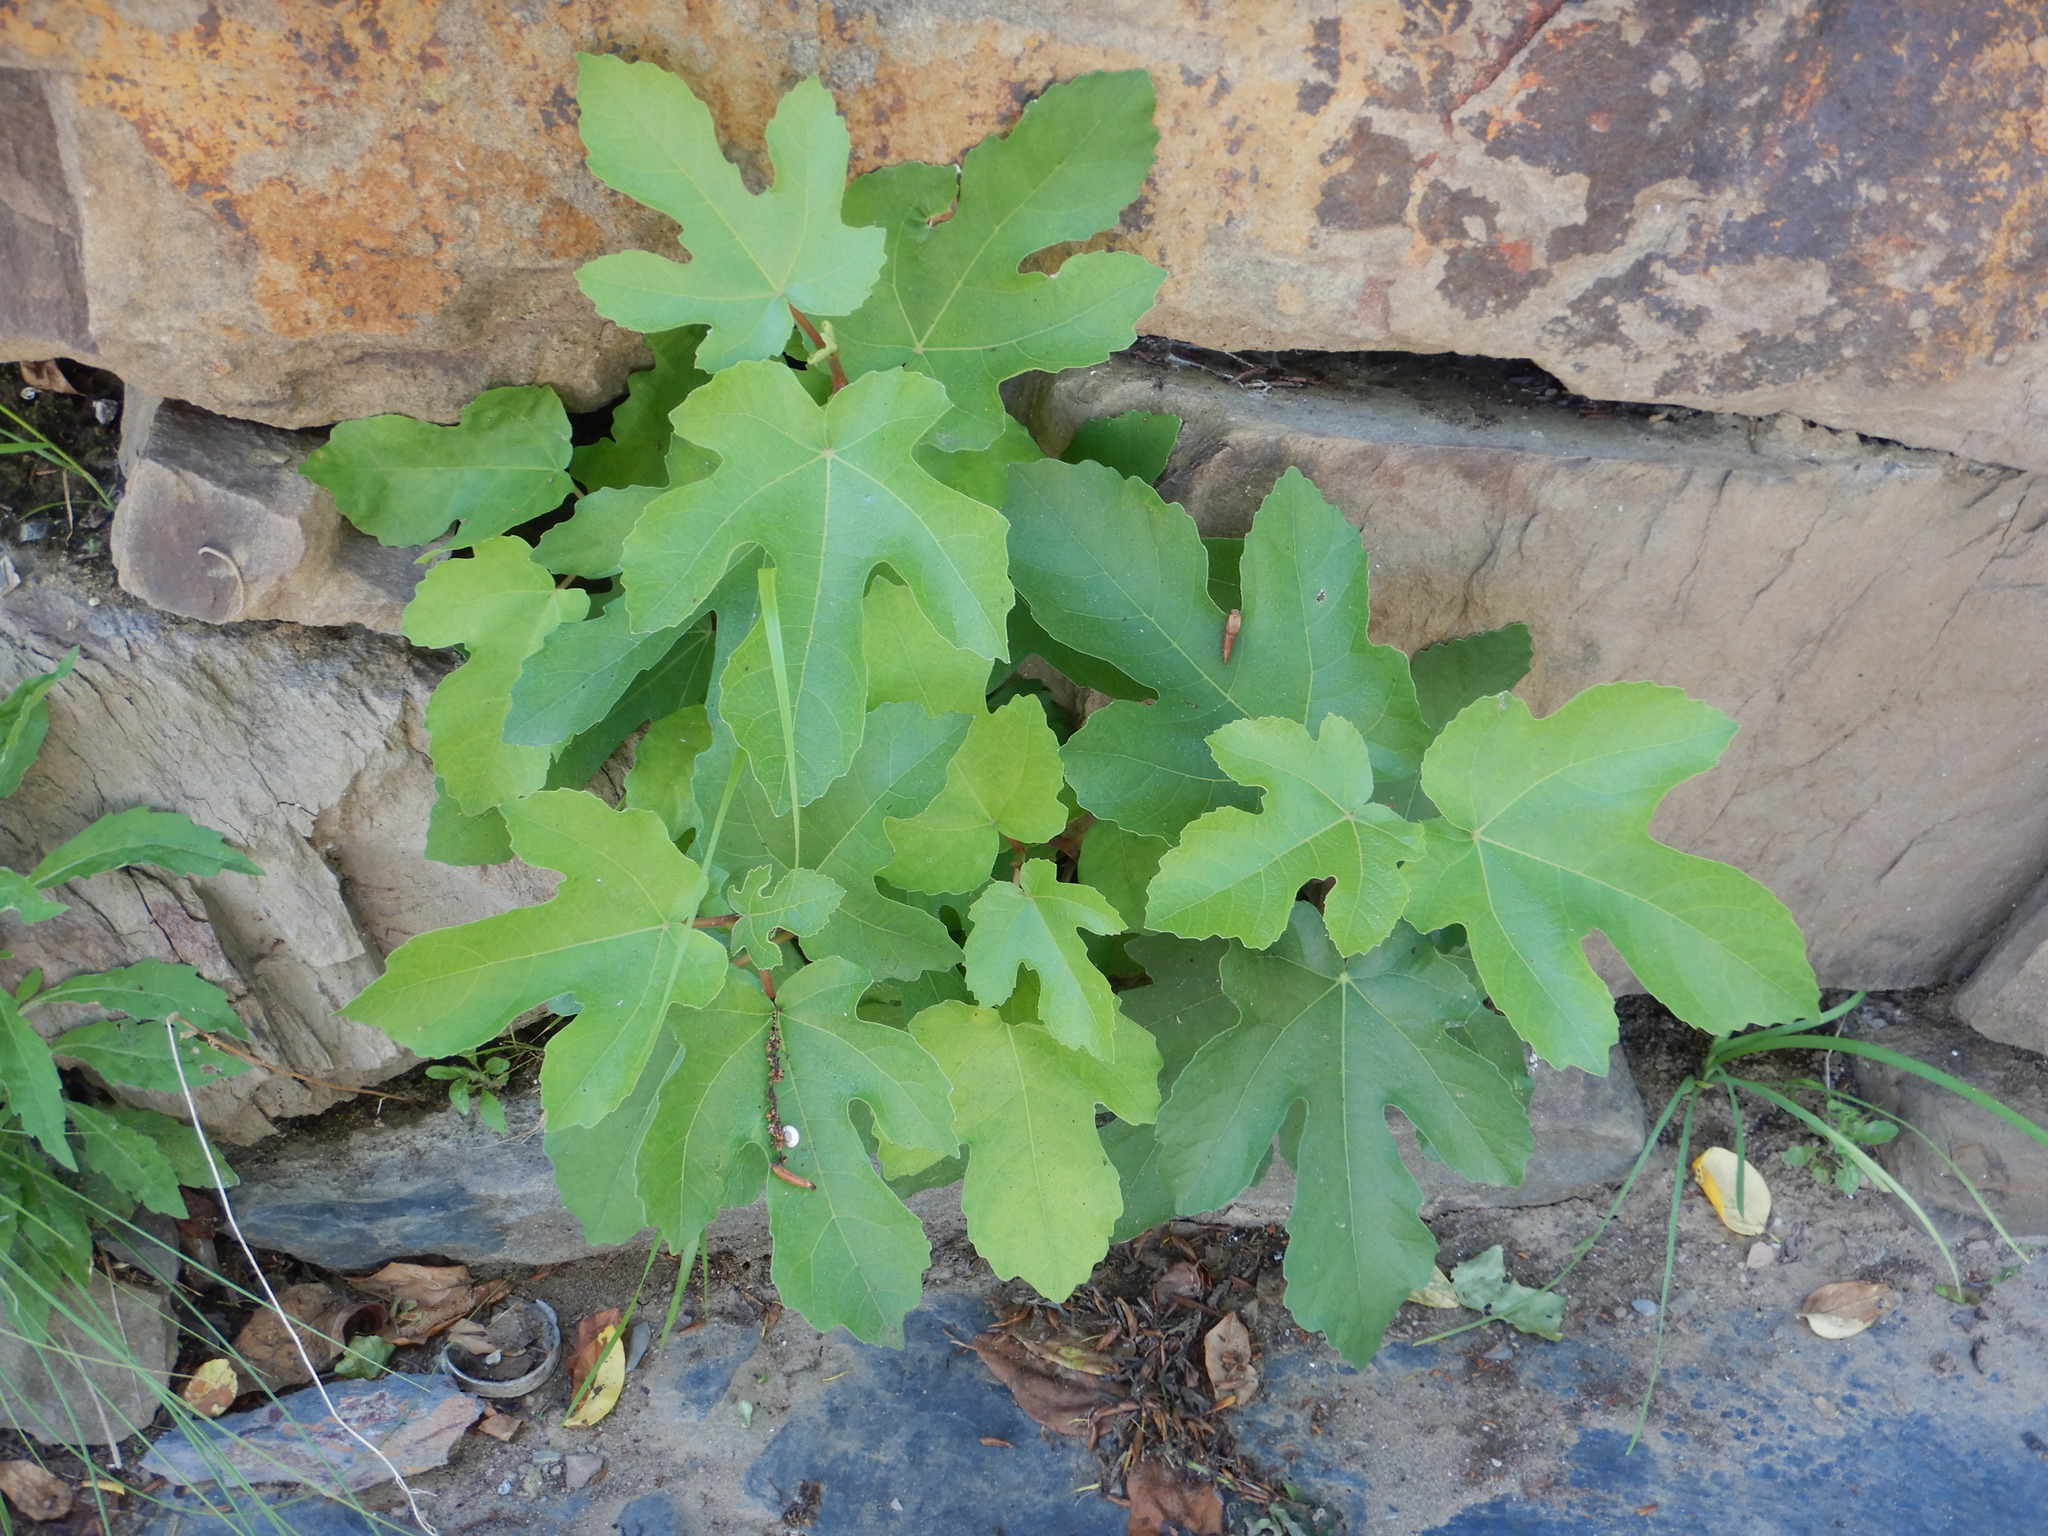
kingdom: Plantae
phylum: Tracheophyta
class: Magnoliopsida
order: Rosales
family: Moraceae
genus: Ficus
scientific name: Ficus carica
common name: Fig
